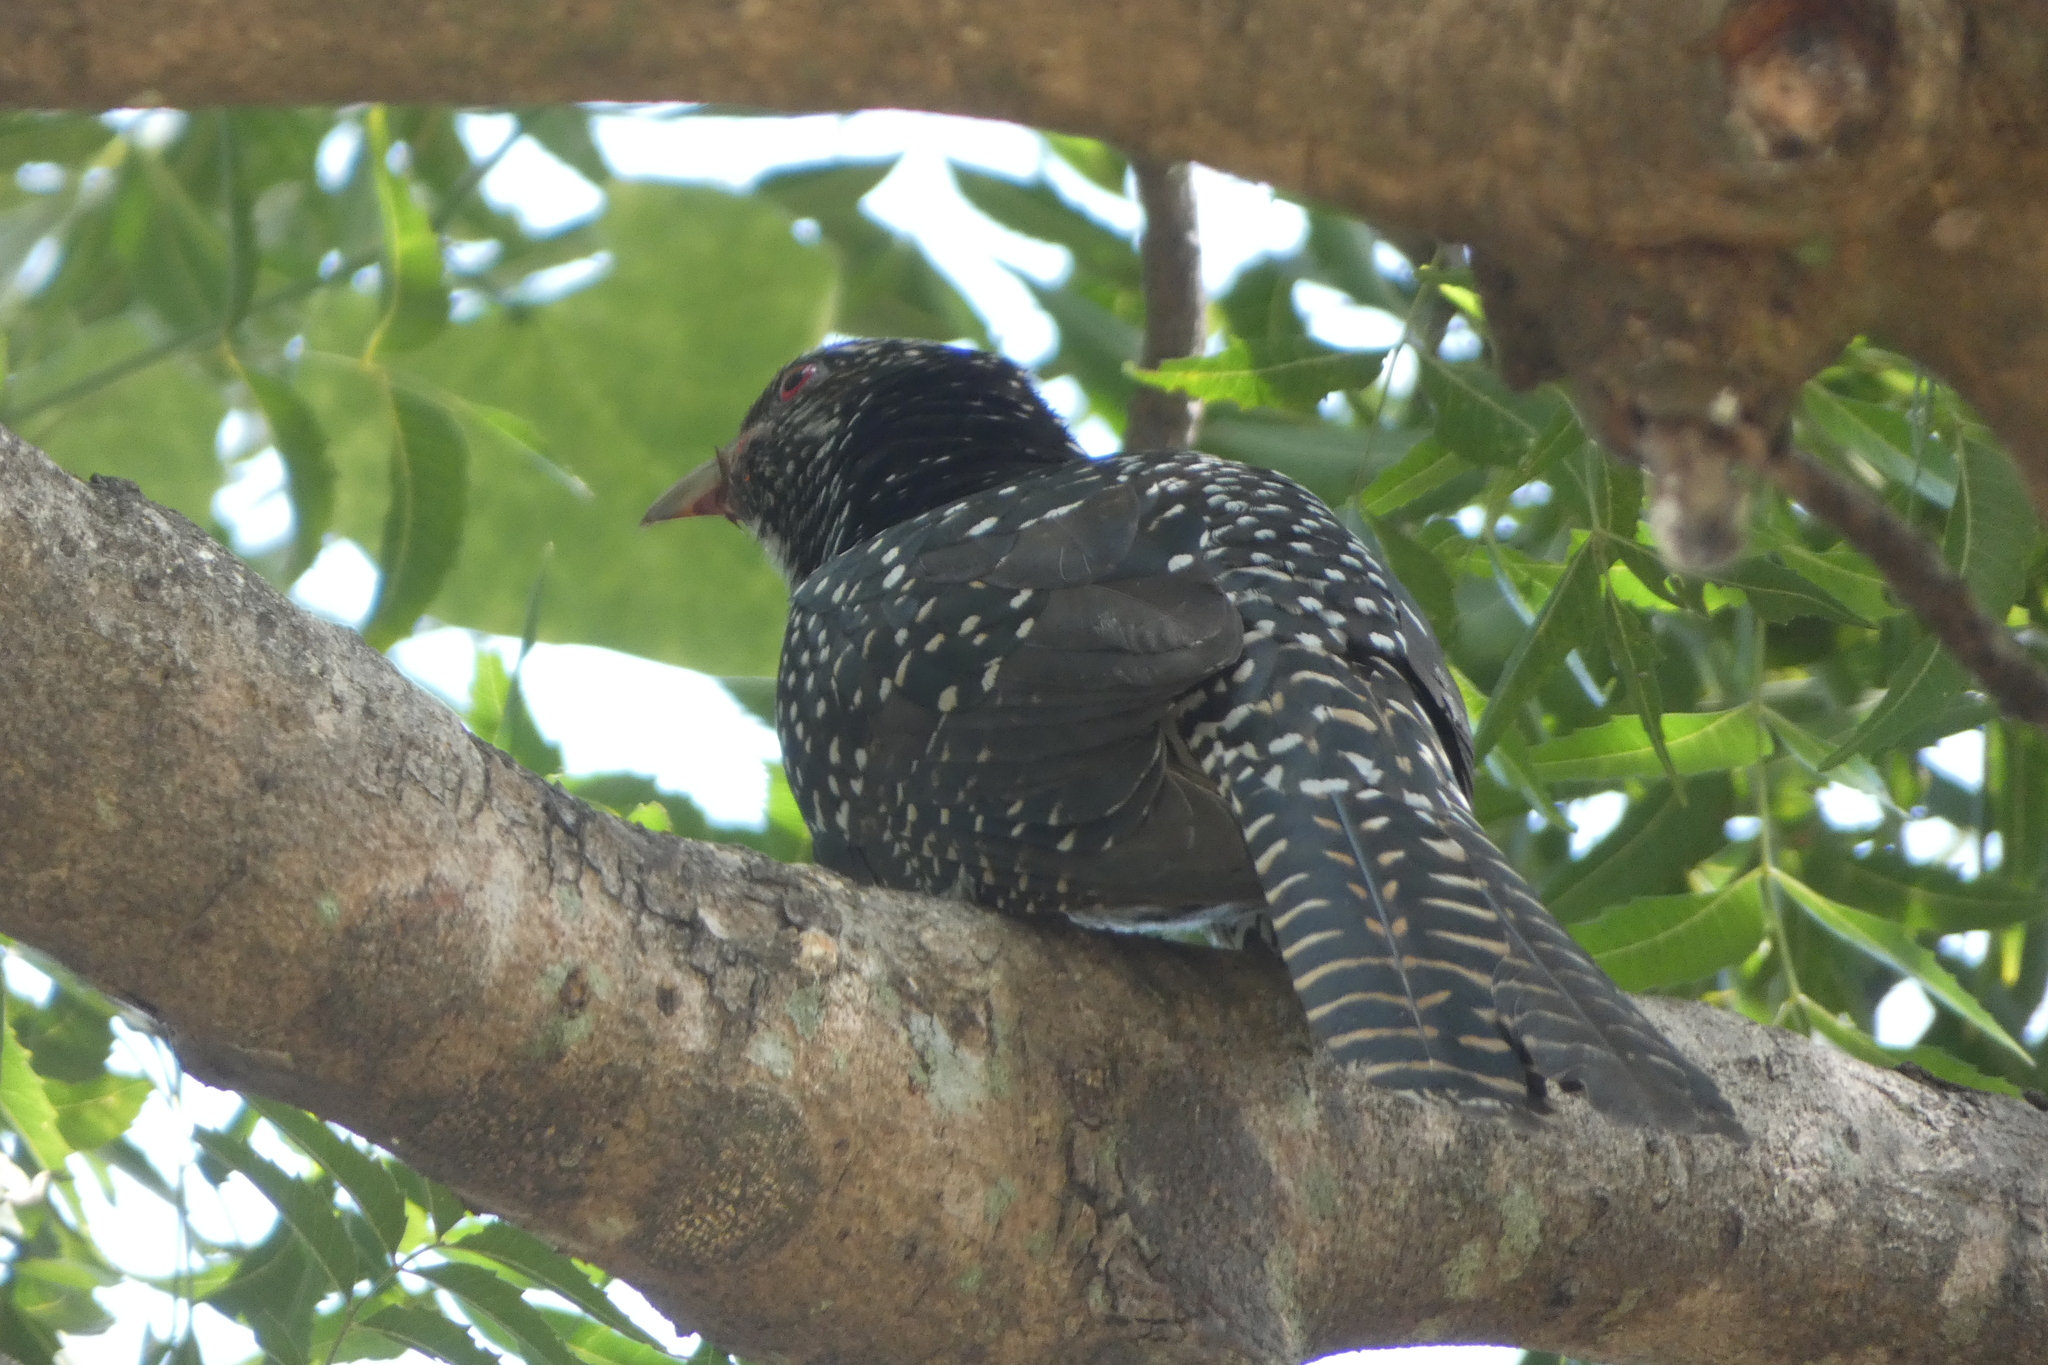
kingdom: Animalia
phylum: Chordata
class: Aves
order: Cuculiformes
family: Cuculidae
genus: Eudynamys
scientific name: Eudynamys scolopaceus
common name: Asian koel
